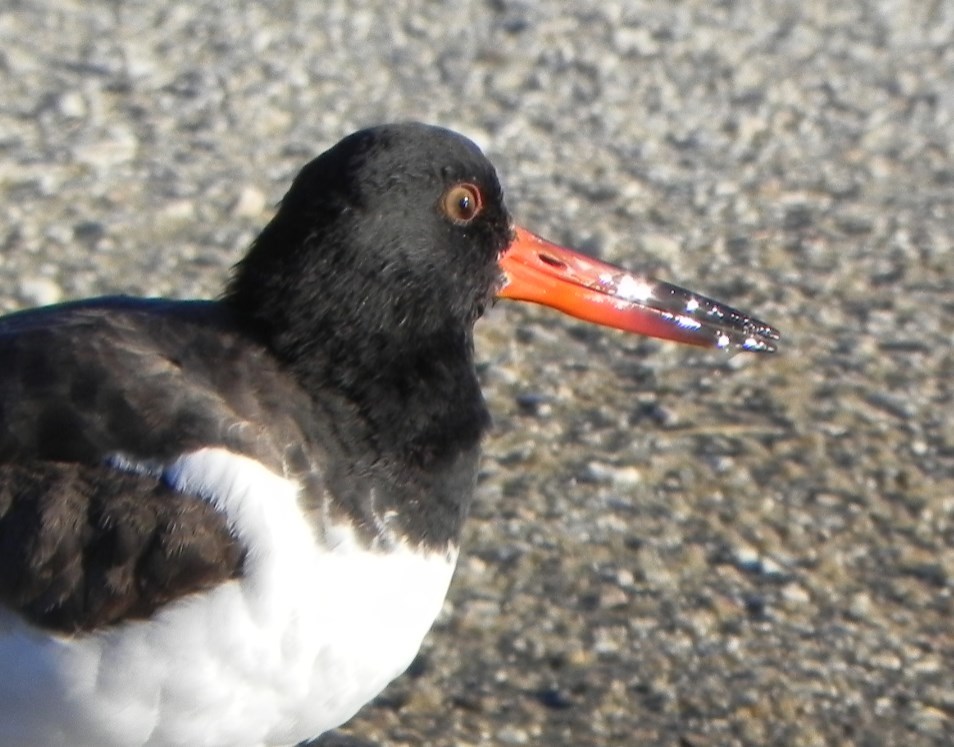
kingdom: Animalia
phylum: Chordata
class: Aves
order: Charadriiformes
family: Haematopodidae
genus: Haematopus
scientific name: Haematopus palliatus
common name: American oystercatcher
